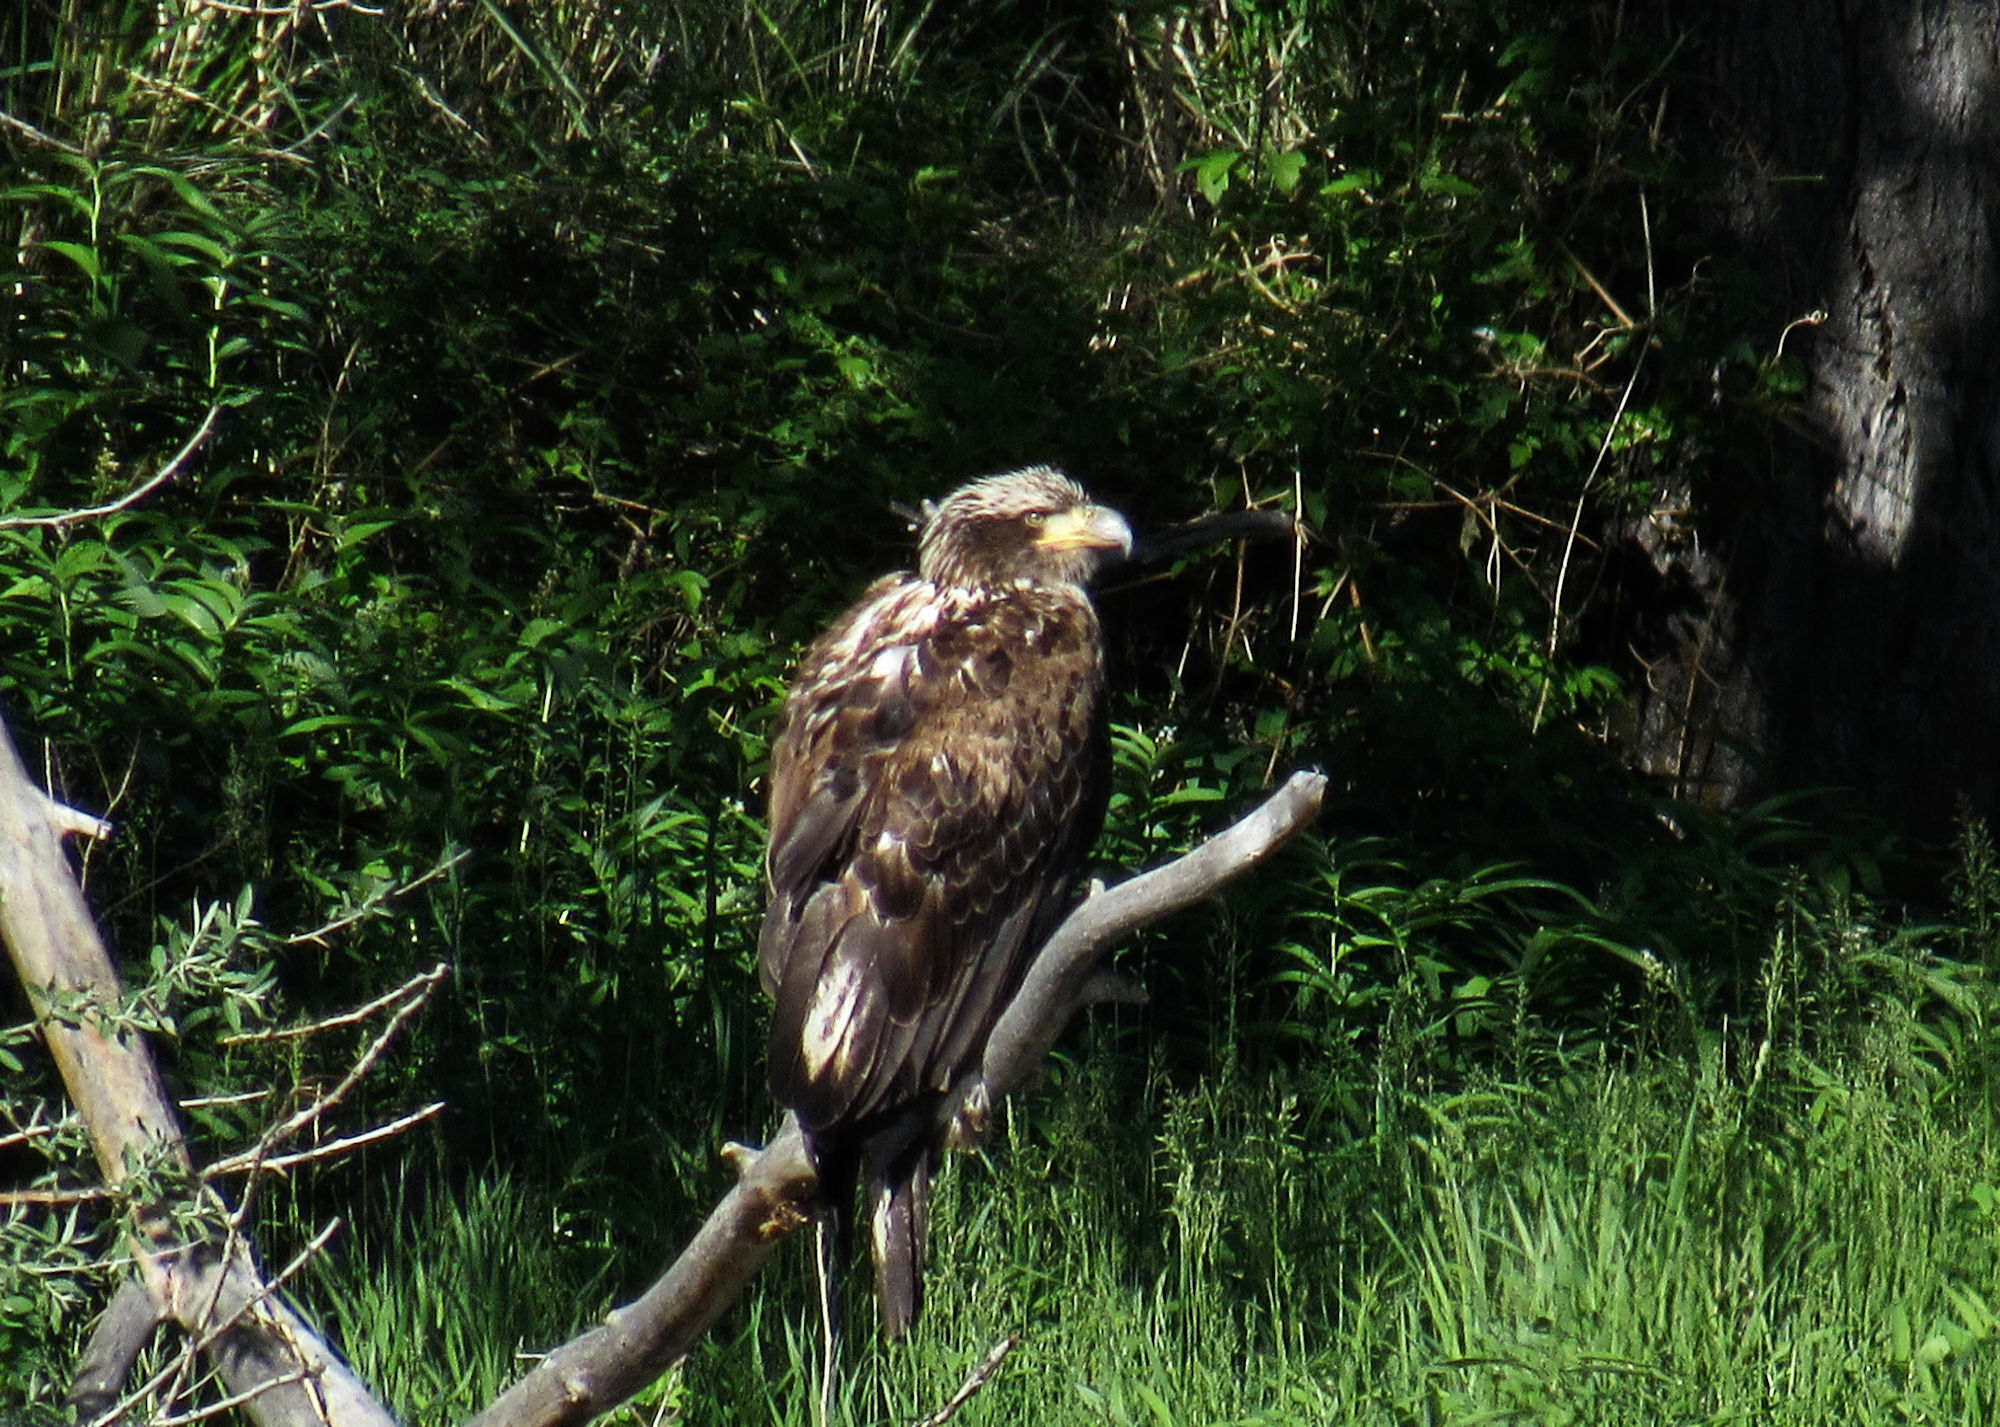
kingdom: Animalia
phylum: Chordata
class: Aves
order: Accipitriformes
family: Accipitridae
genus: Haliaeetus
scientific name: Haliaeetus leucocephalus
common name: Bald eagle
